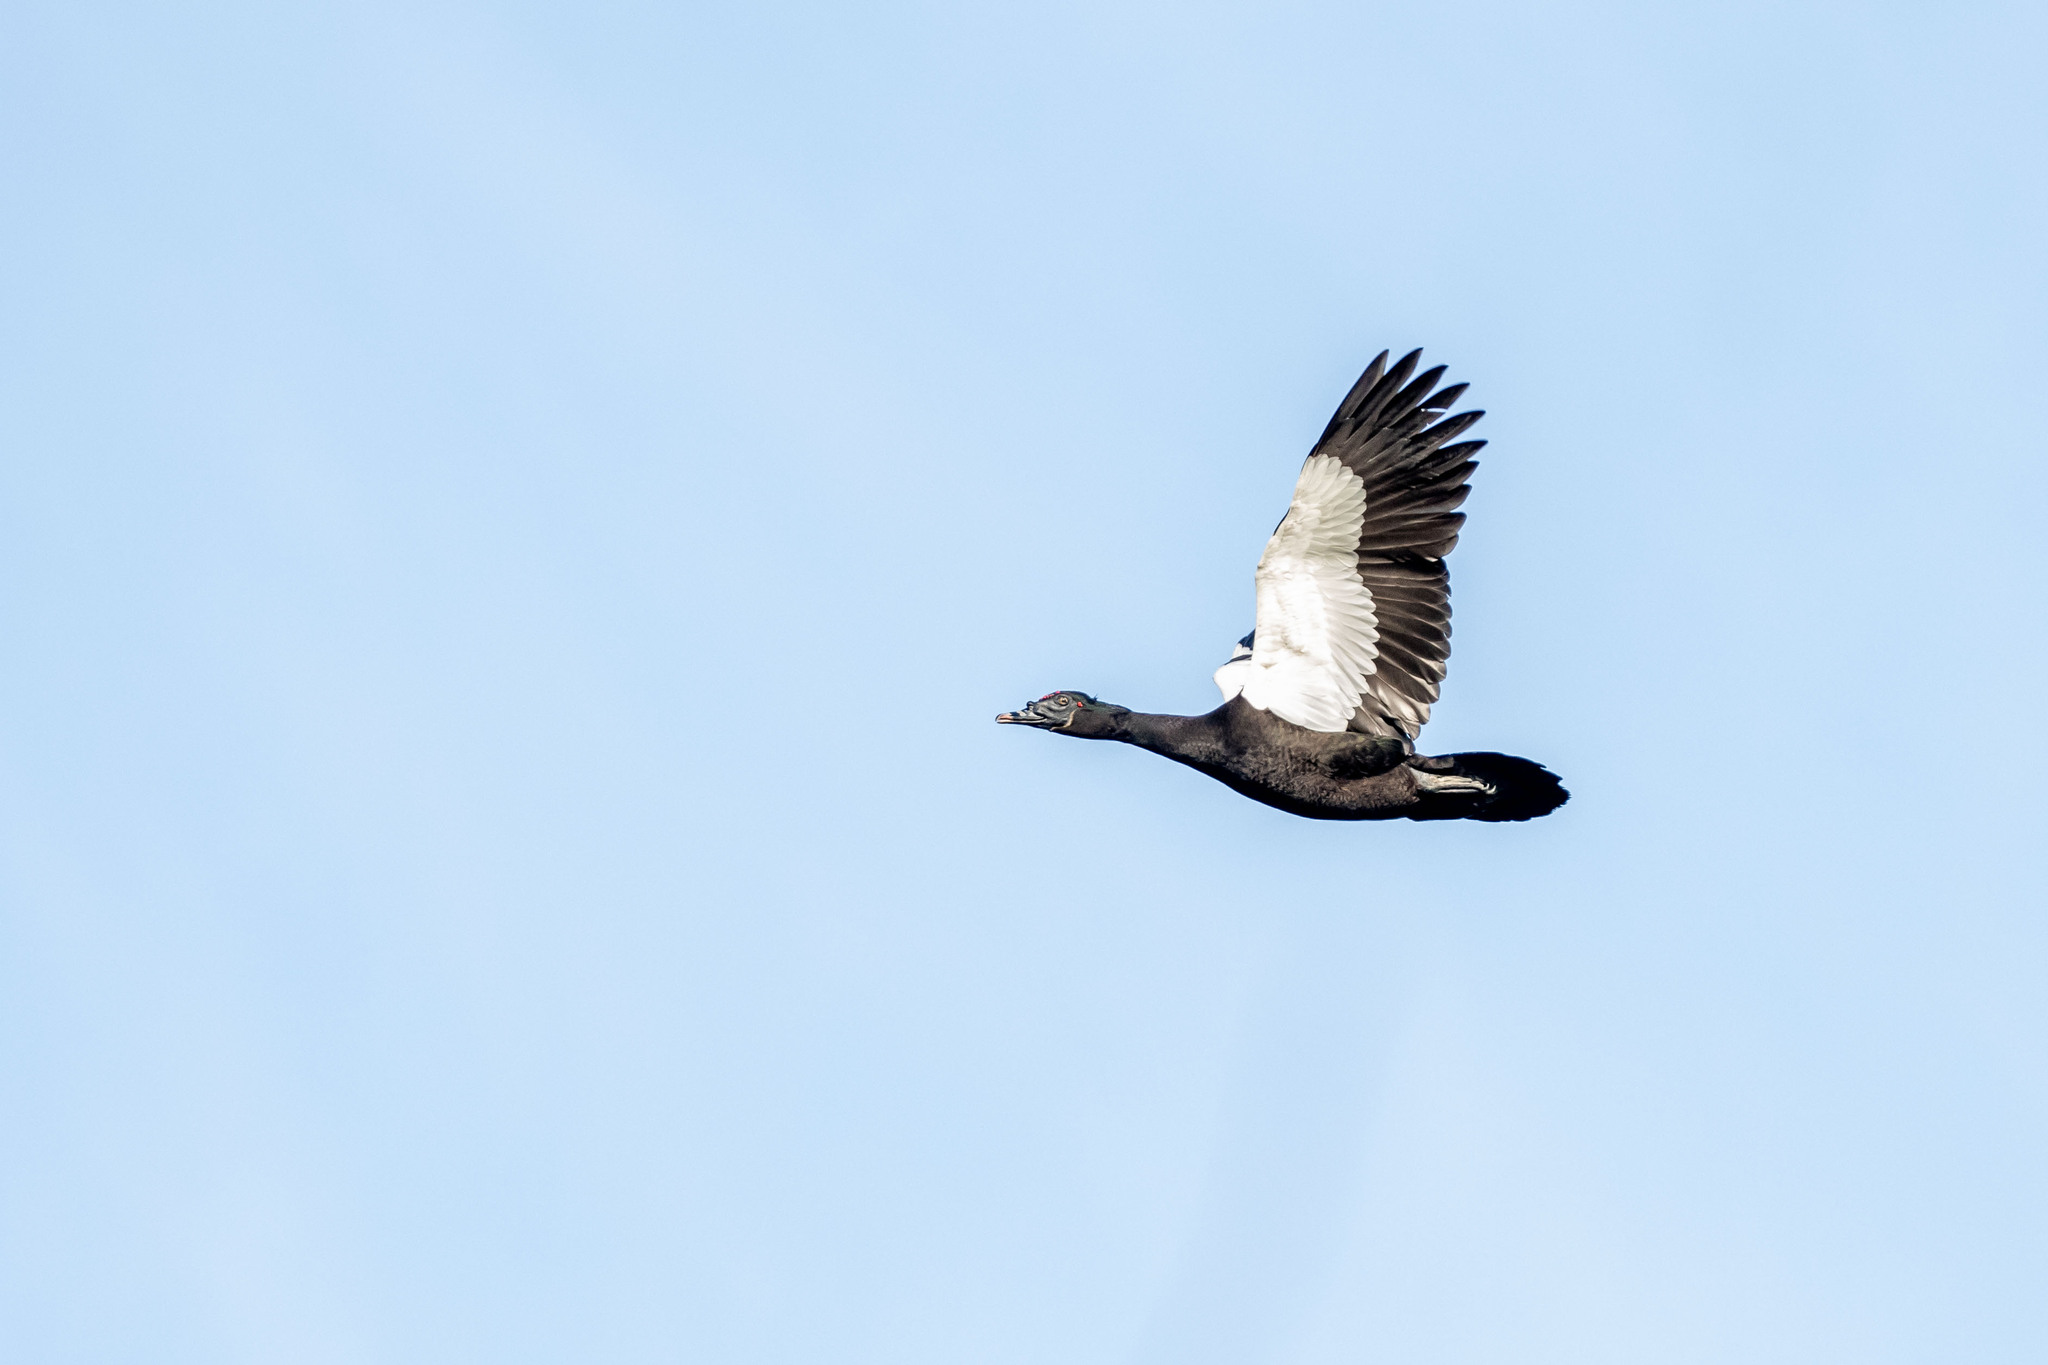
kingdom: Animalia
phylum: Chordata
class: Aves
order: Anseriformes
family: Anatidae
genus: Cairina
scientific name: Cairina moschata
